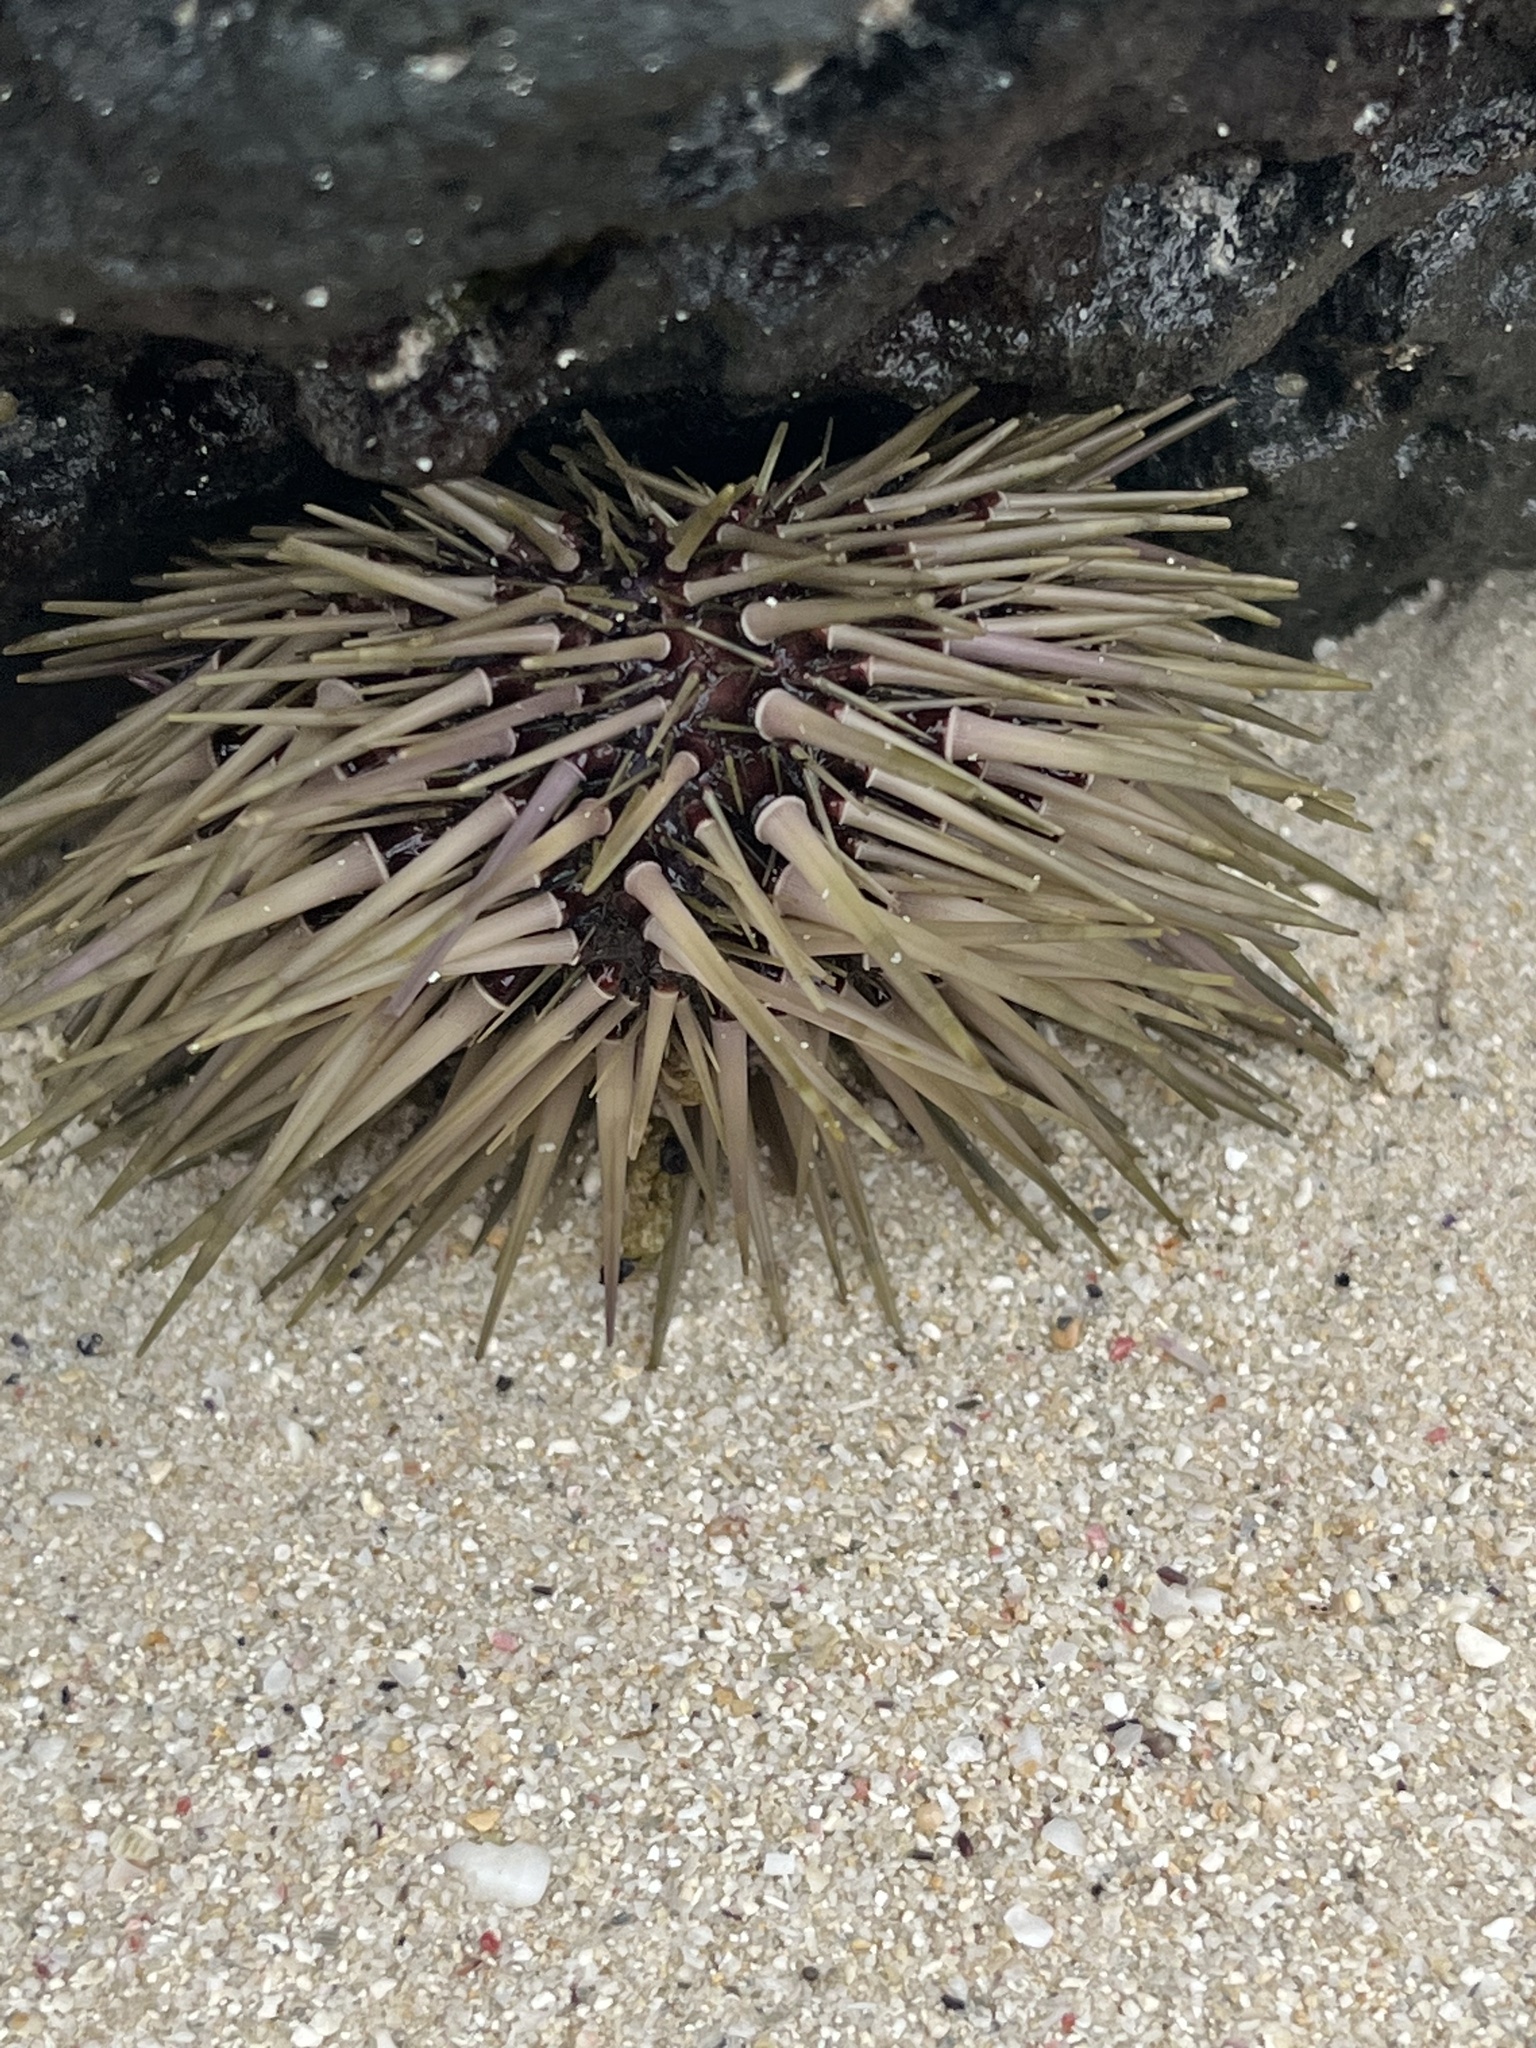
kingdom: Animalia
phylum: Echinodermata
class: Echinoidea
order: Camarodonta
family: Echinometridae
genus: Echinometra
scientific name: Echinometra mathaei
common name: Rock-boring urchin
